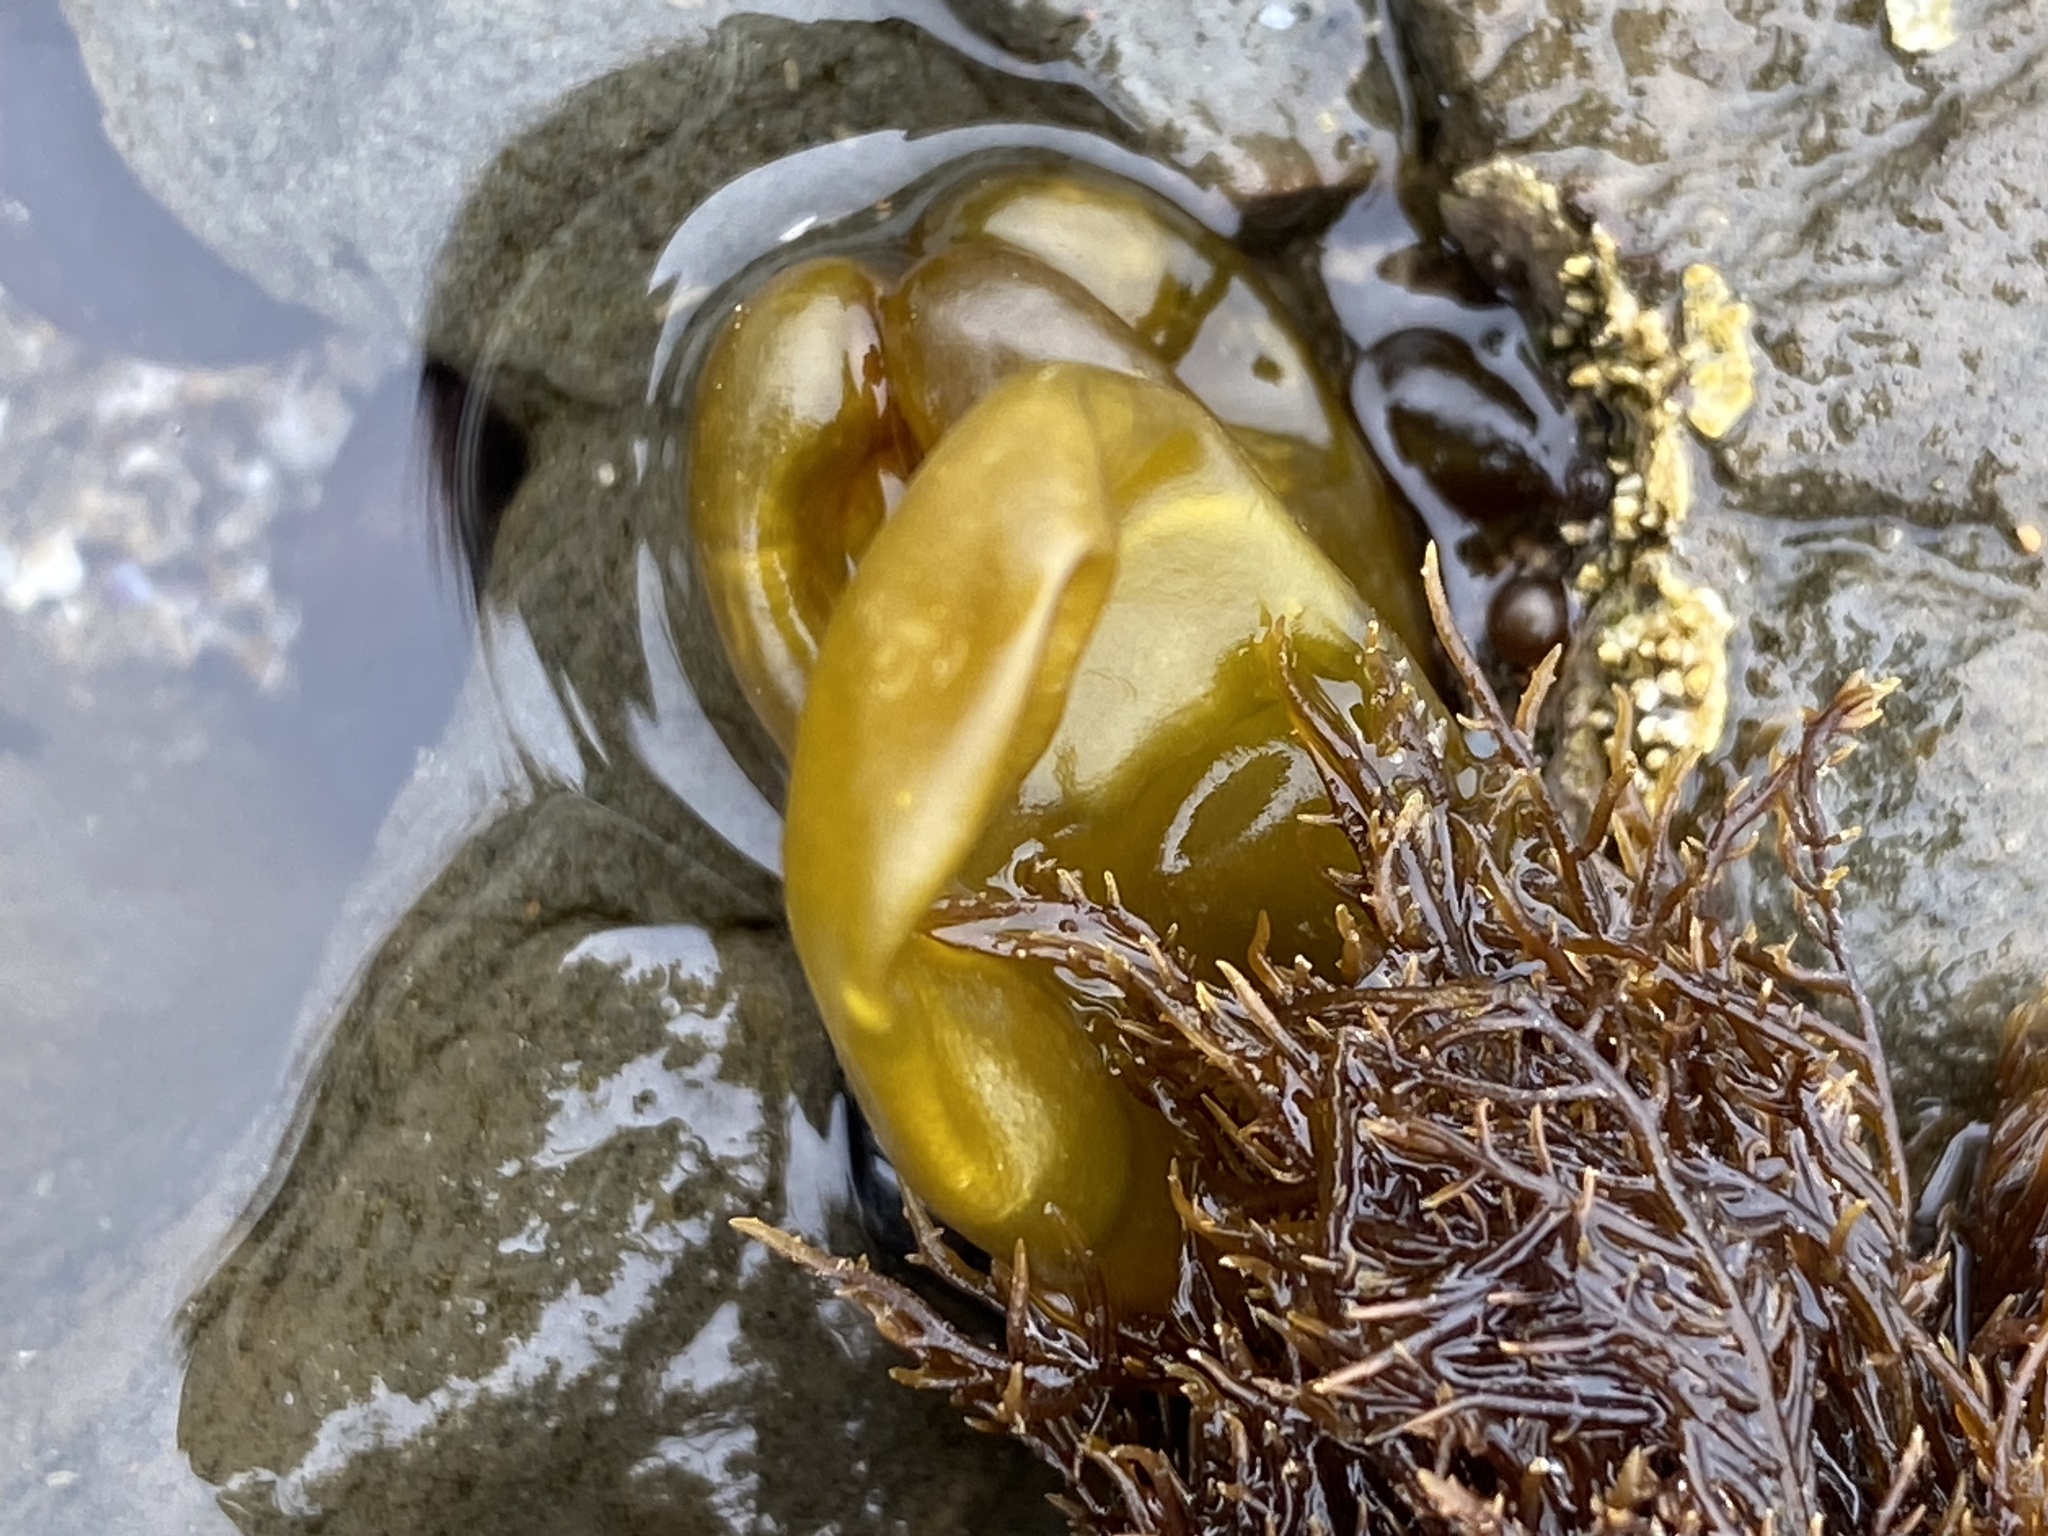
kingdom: Plantae
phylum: Rhodophyta
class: Florideophyceae
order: Palmariales
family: Palmariaceae
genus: Halosaccion
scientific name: Halosaccion glandiforme
